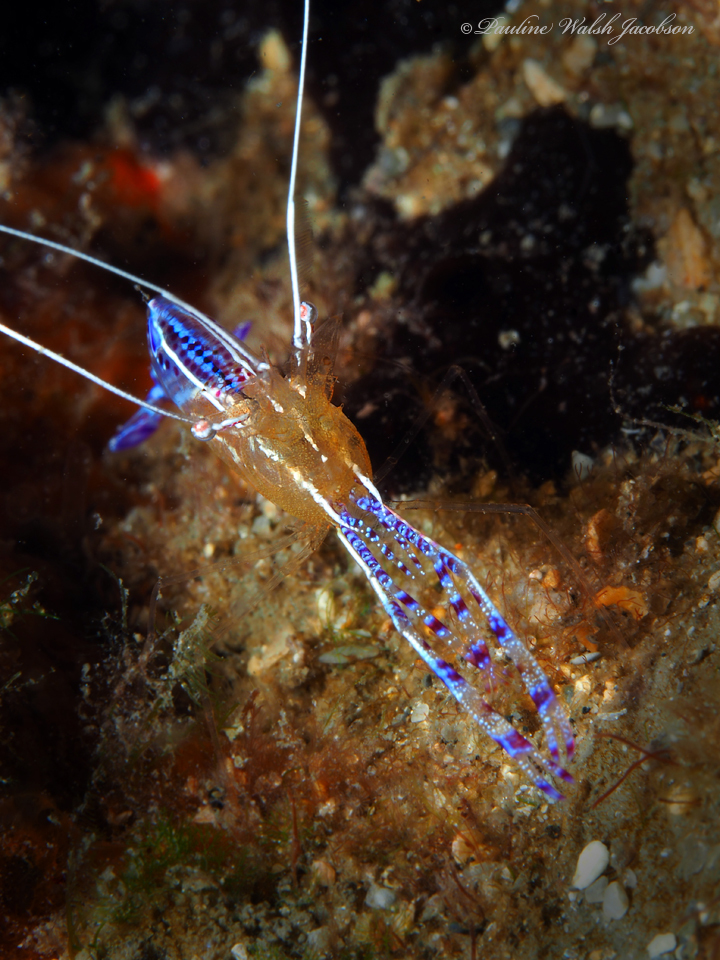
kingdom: Animalia
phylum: Arthropoda
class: Malacostraca
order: Decapoda
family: Palaemonidae
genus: Ancylomenes
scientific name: Ancylomenes pedersoni
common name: Pederson's cleaning shrimp
